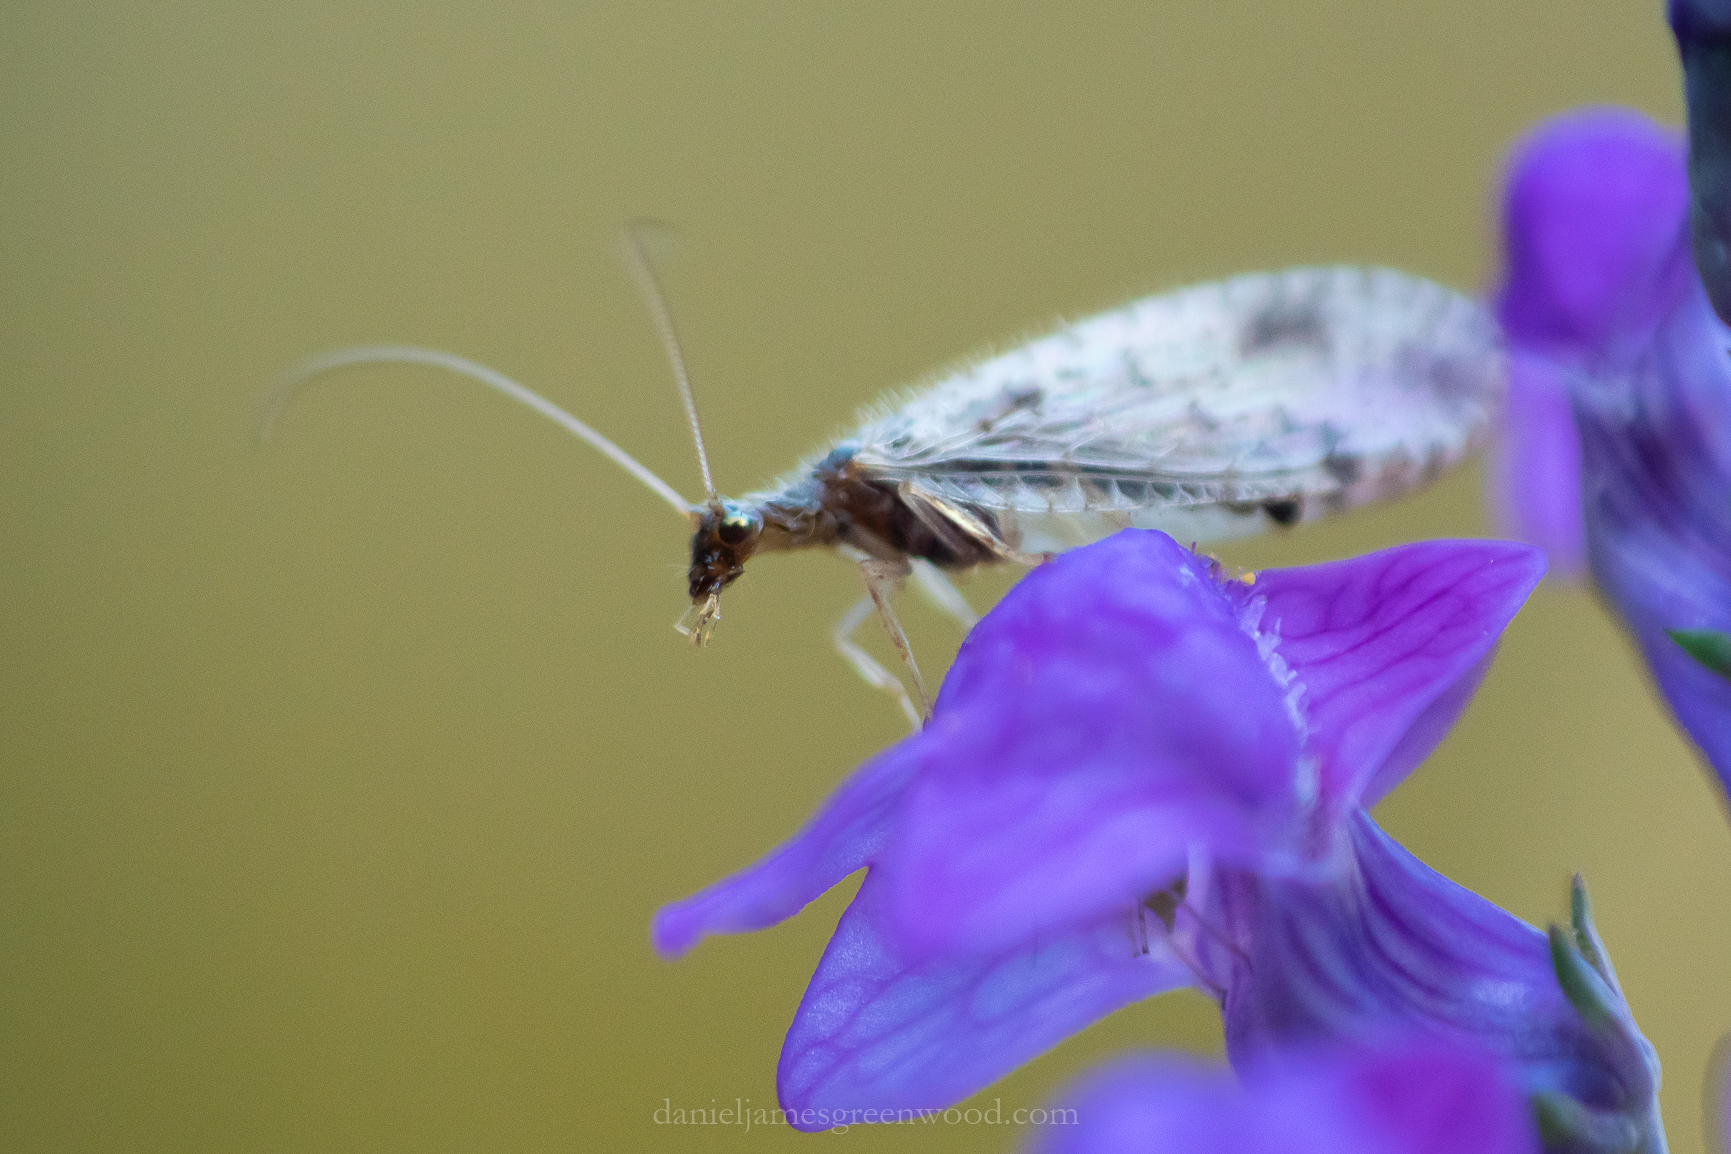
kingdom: Animalia
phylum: Arthropoda
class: Insecta
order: Neuroptera
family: Hemerobiidae
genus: Micromus
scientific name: Micromus variegatus
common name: Brown lacewing
